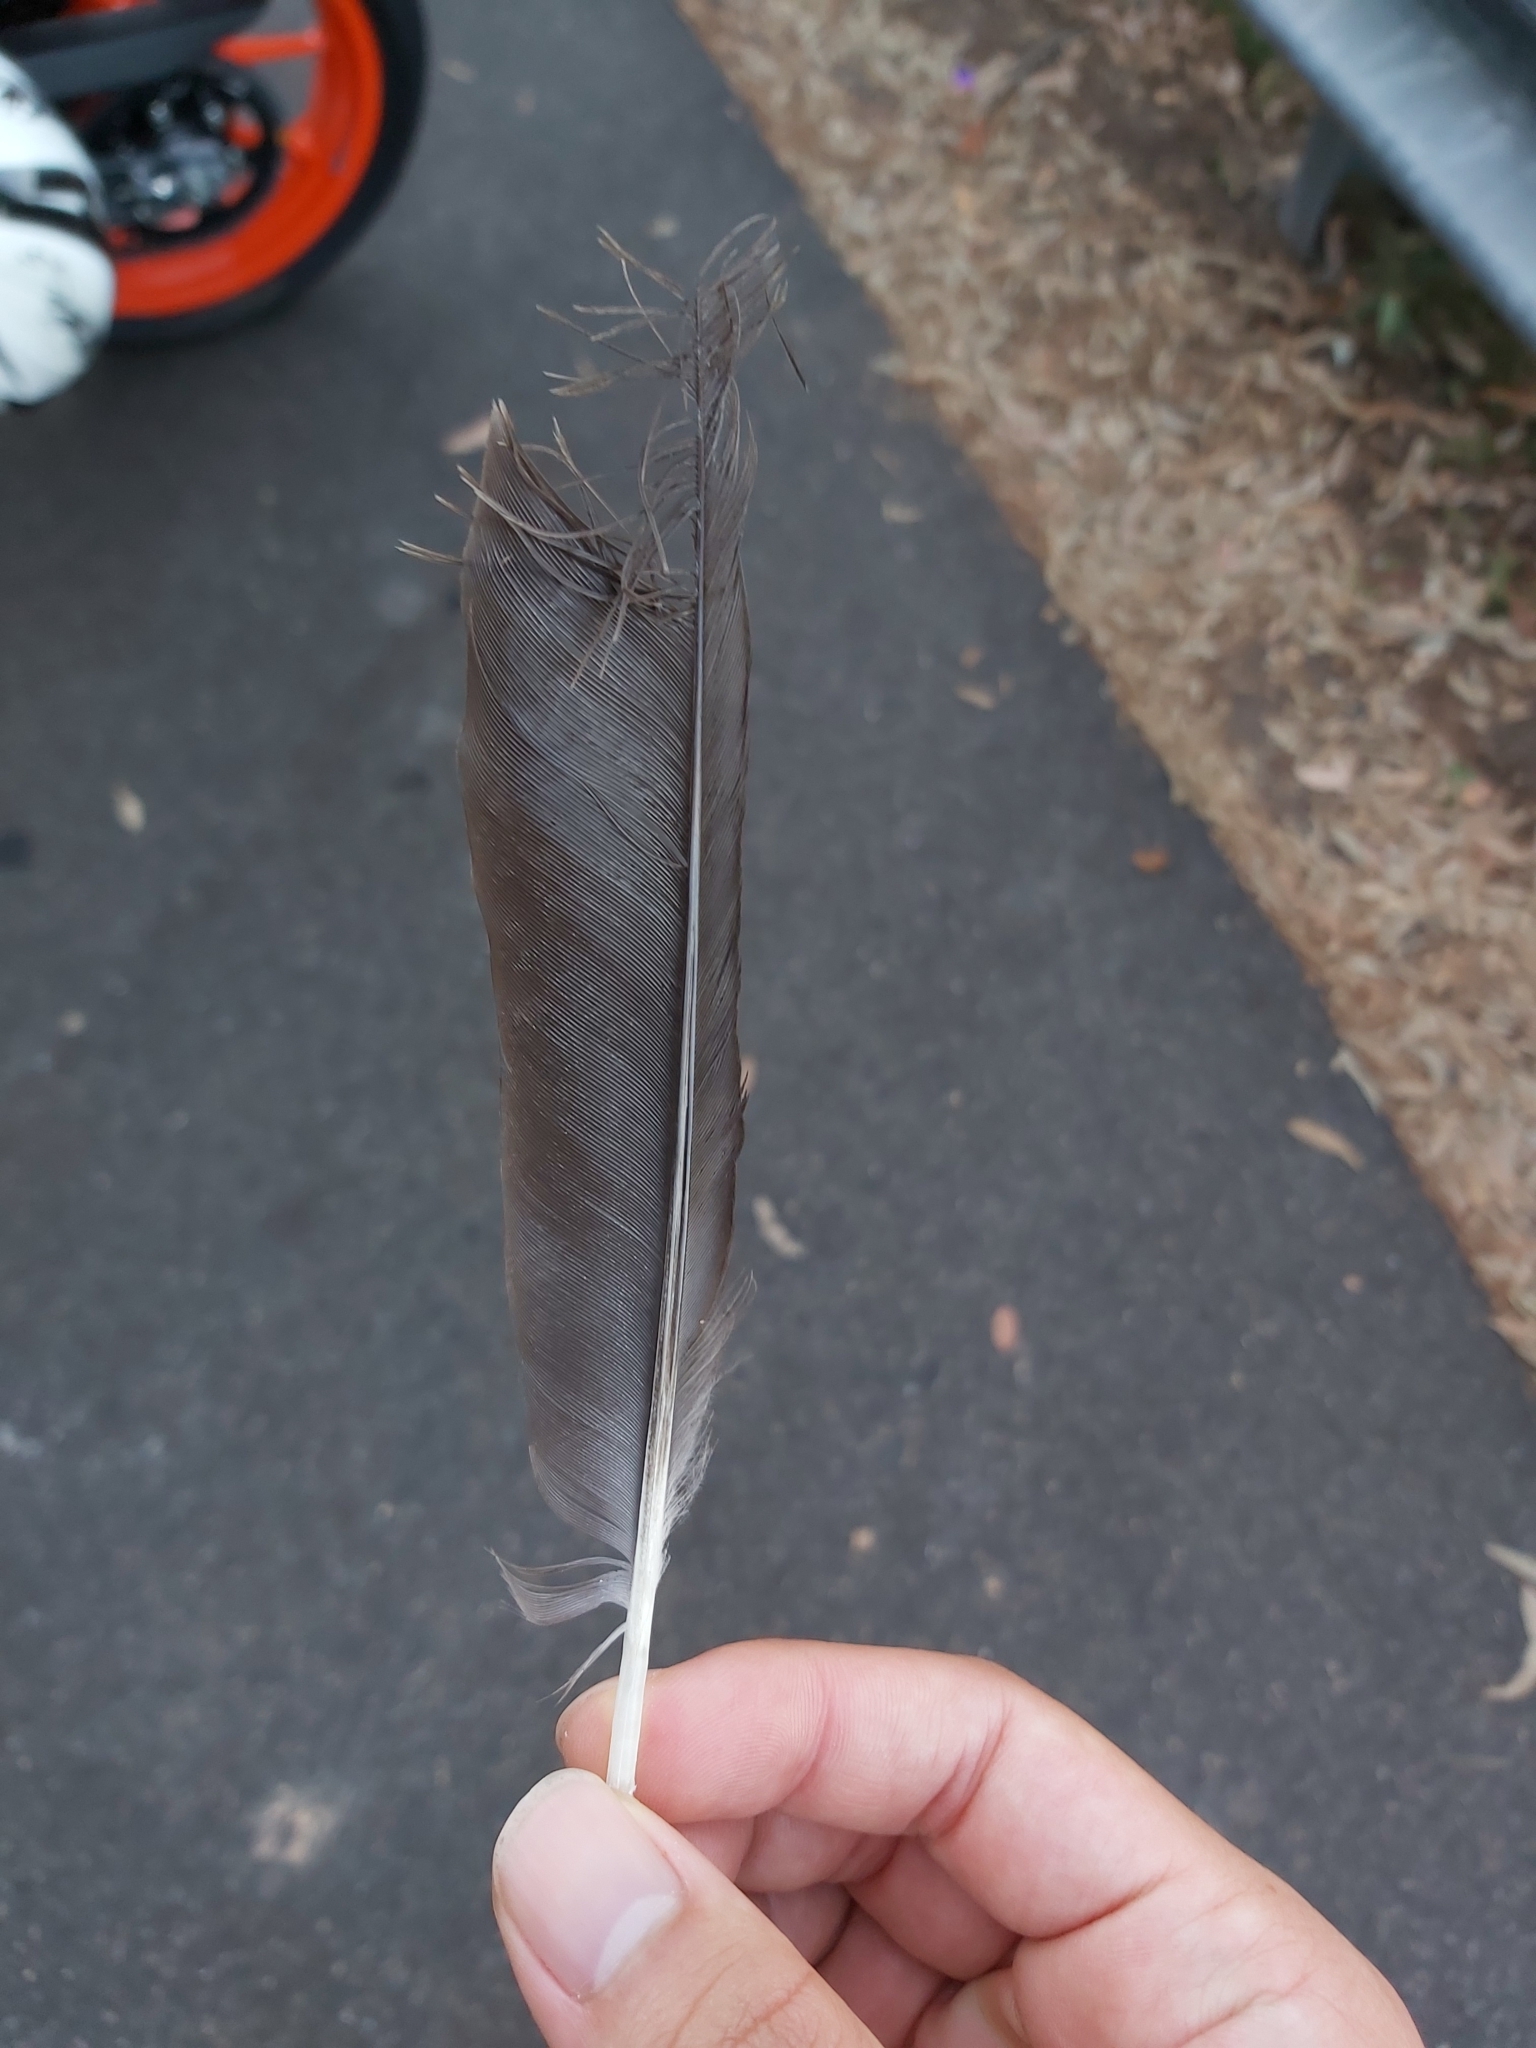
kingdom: Animalia
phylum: Chordata
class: Aves
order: Passeriformes
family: Cracticidae
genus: Gymnorhina
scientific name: Gymnorhina tibicen
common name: Australian magpie
